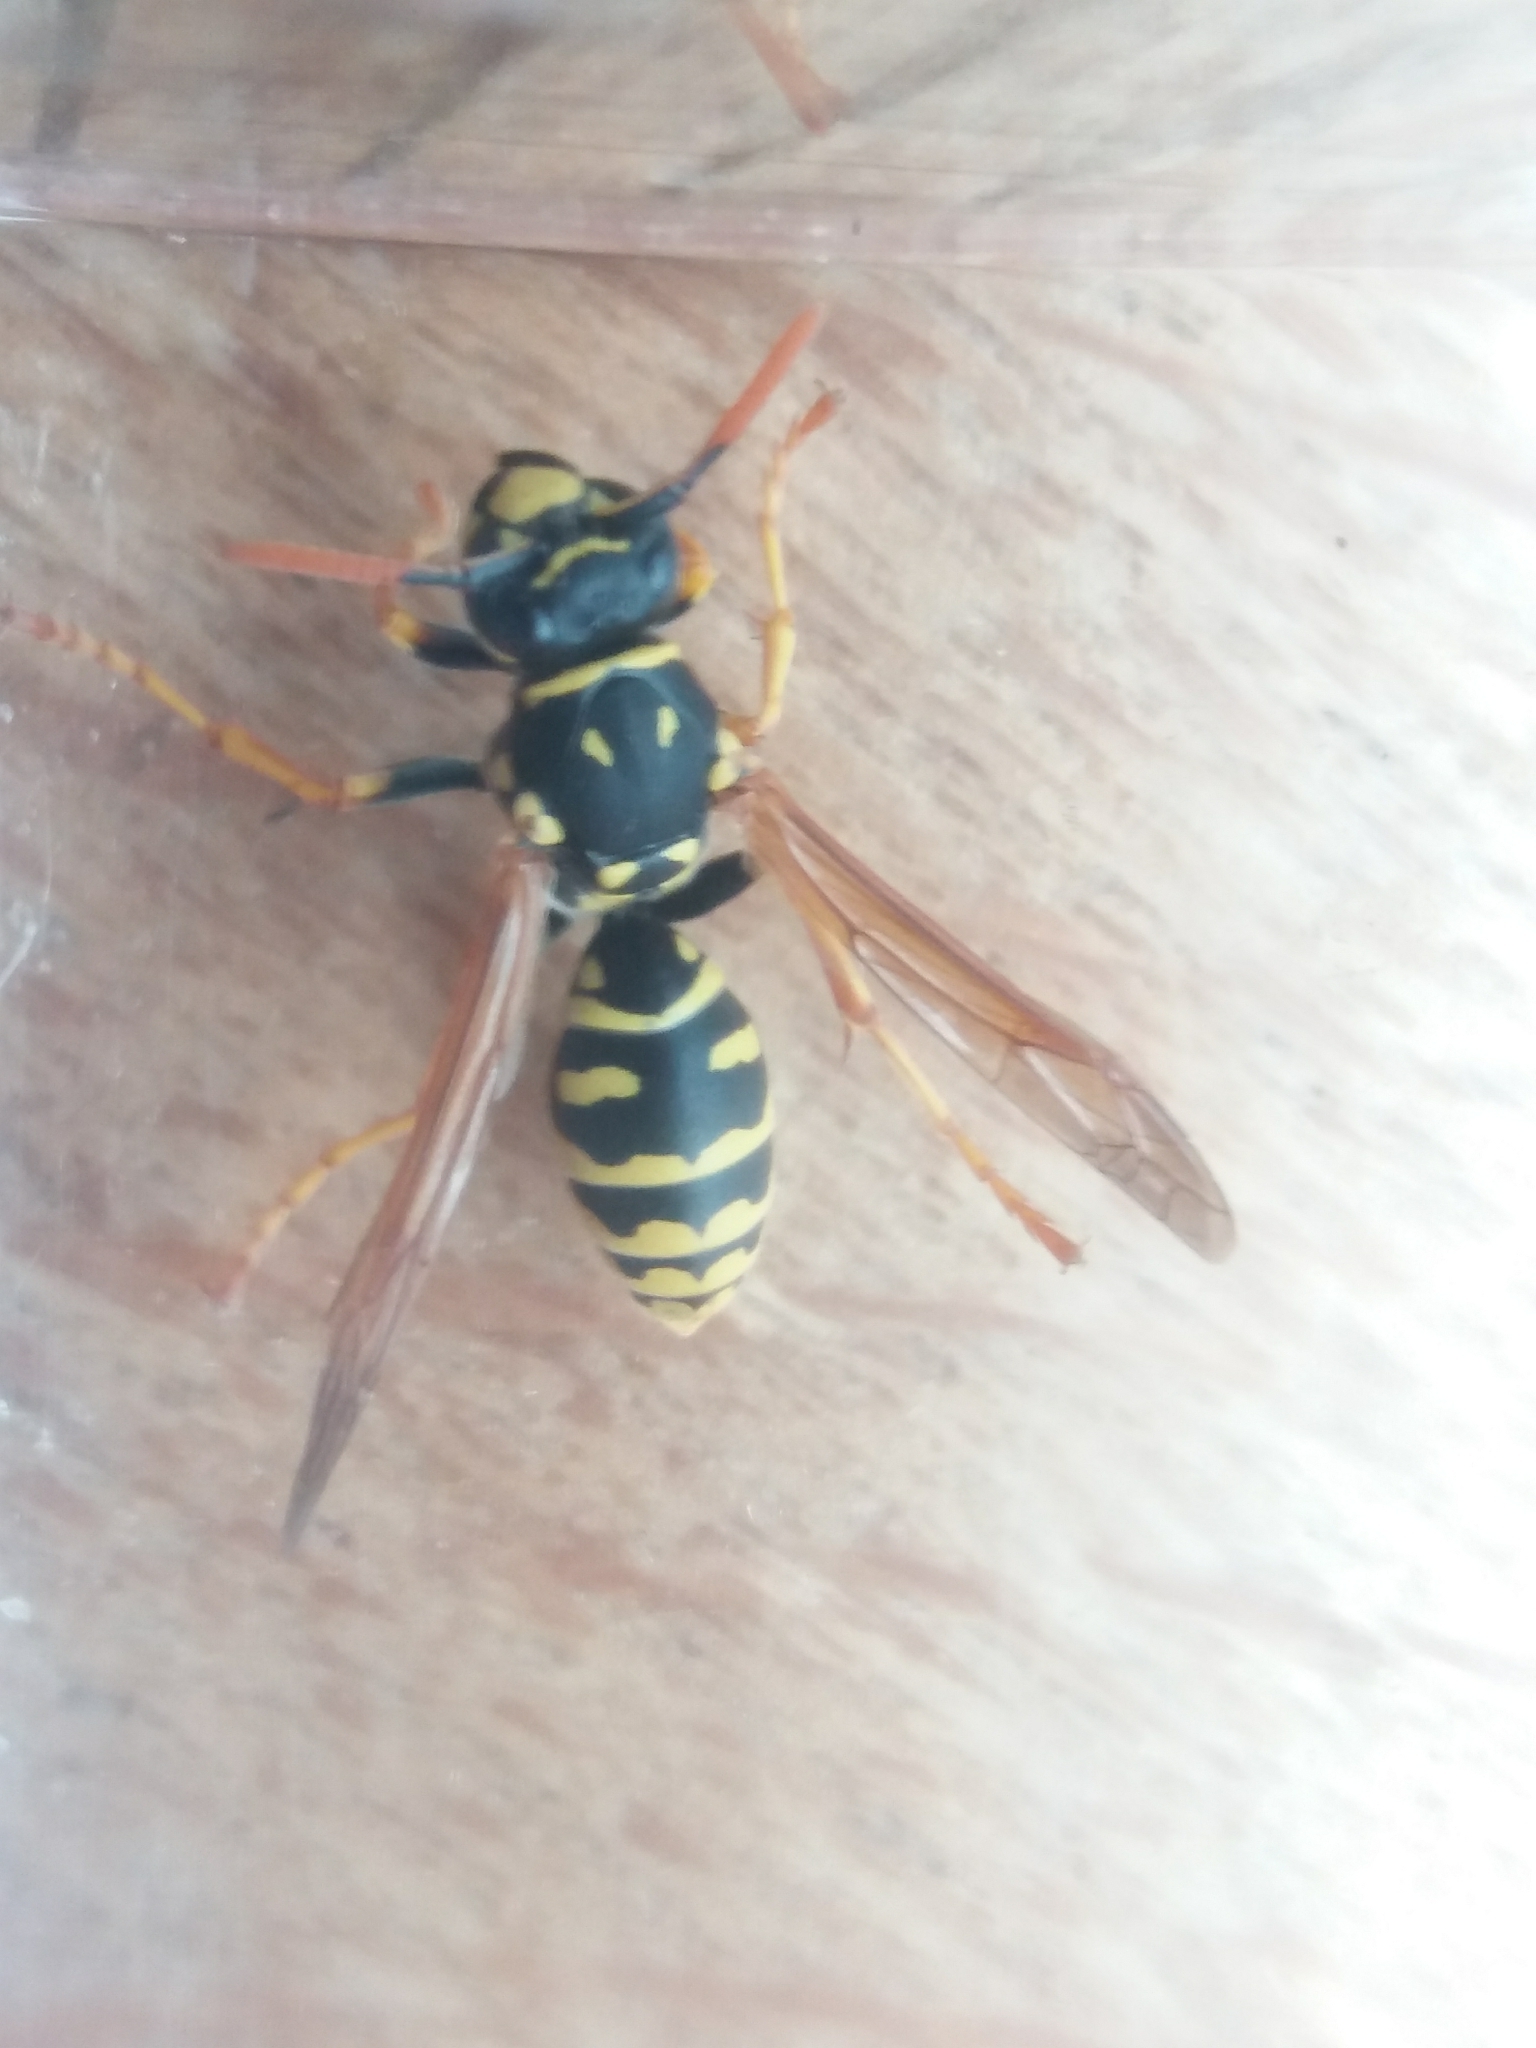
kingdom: Animalia
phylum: Arthropoda
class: Insecta
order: Hymenoptera
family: Eumenidae
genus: Polistes
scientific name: Polistes dominula
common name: Paper wasp
